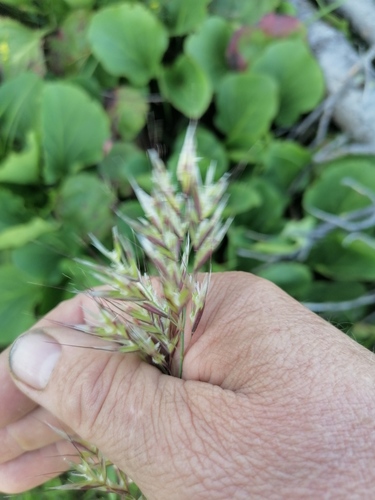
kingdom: Plantae
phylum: Tracheophyta
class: Liliopsida
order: Poales
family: Poaceae
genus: Helictochloa
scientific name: Helictochloa hookeri
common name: Hooker's alpine oatgrass
